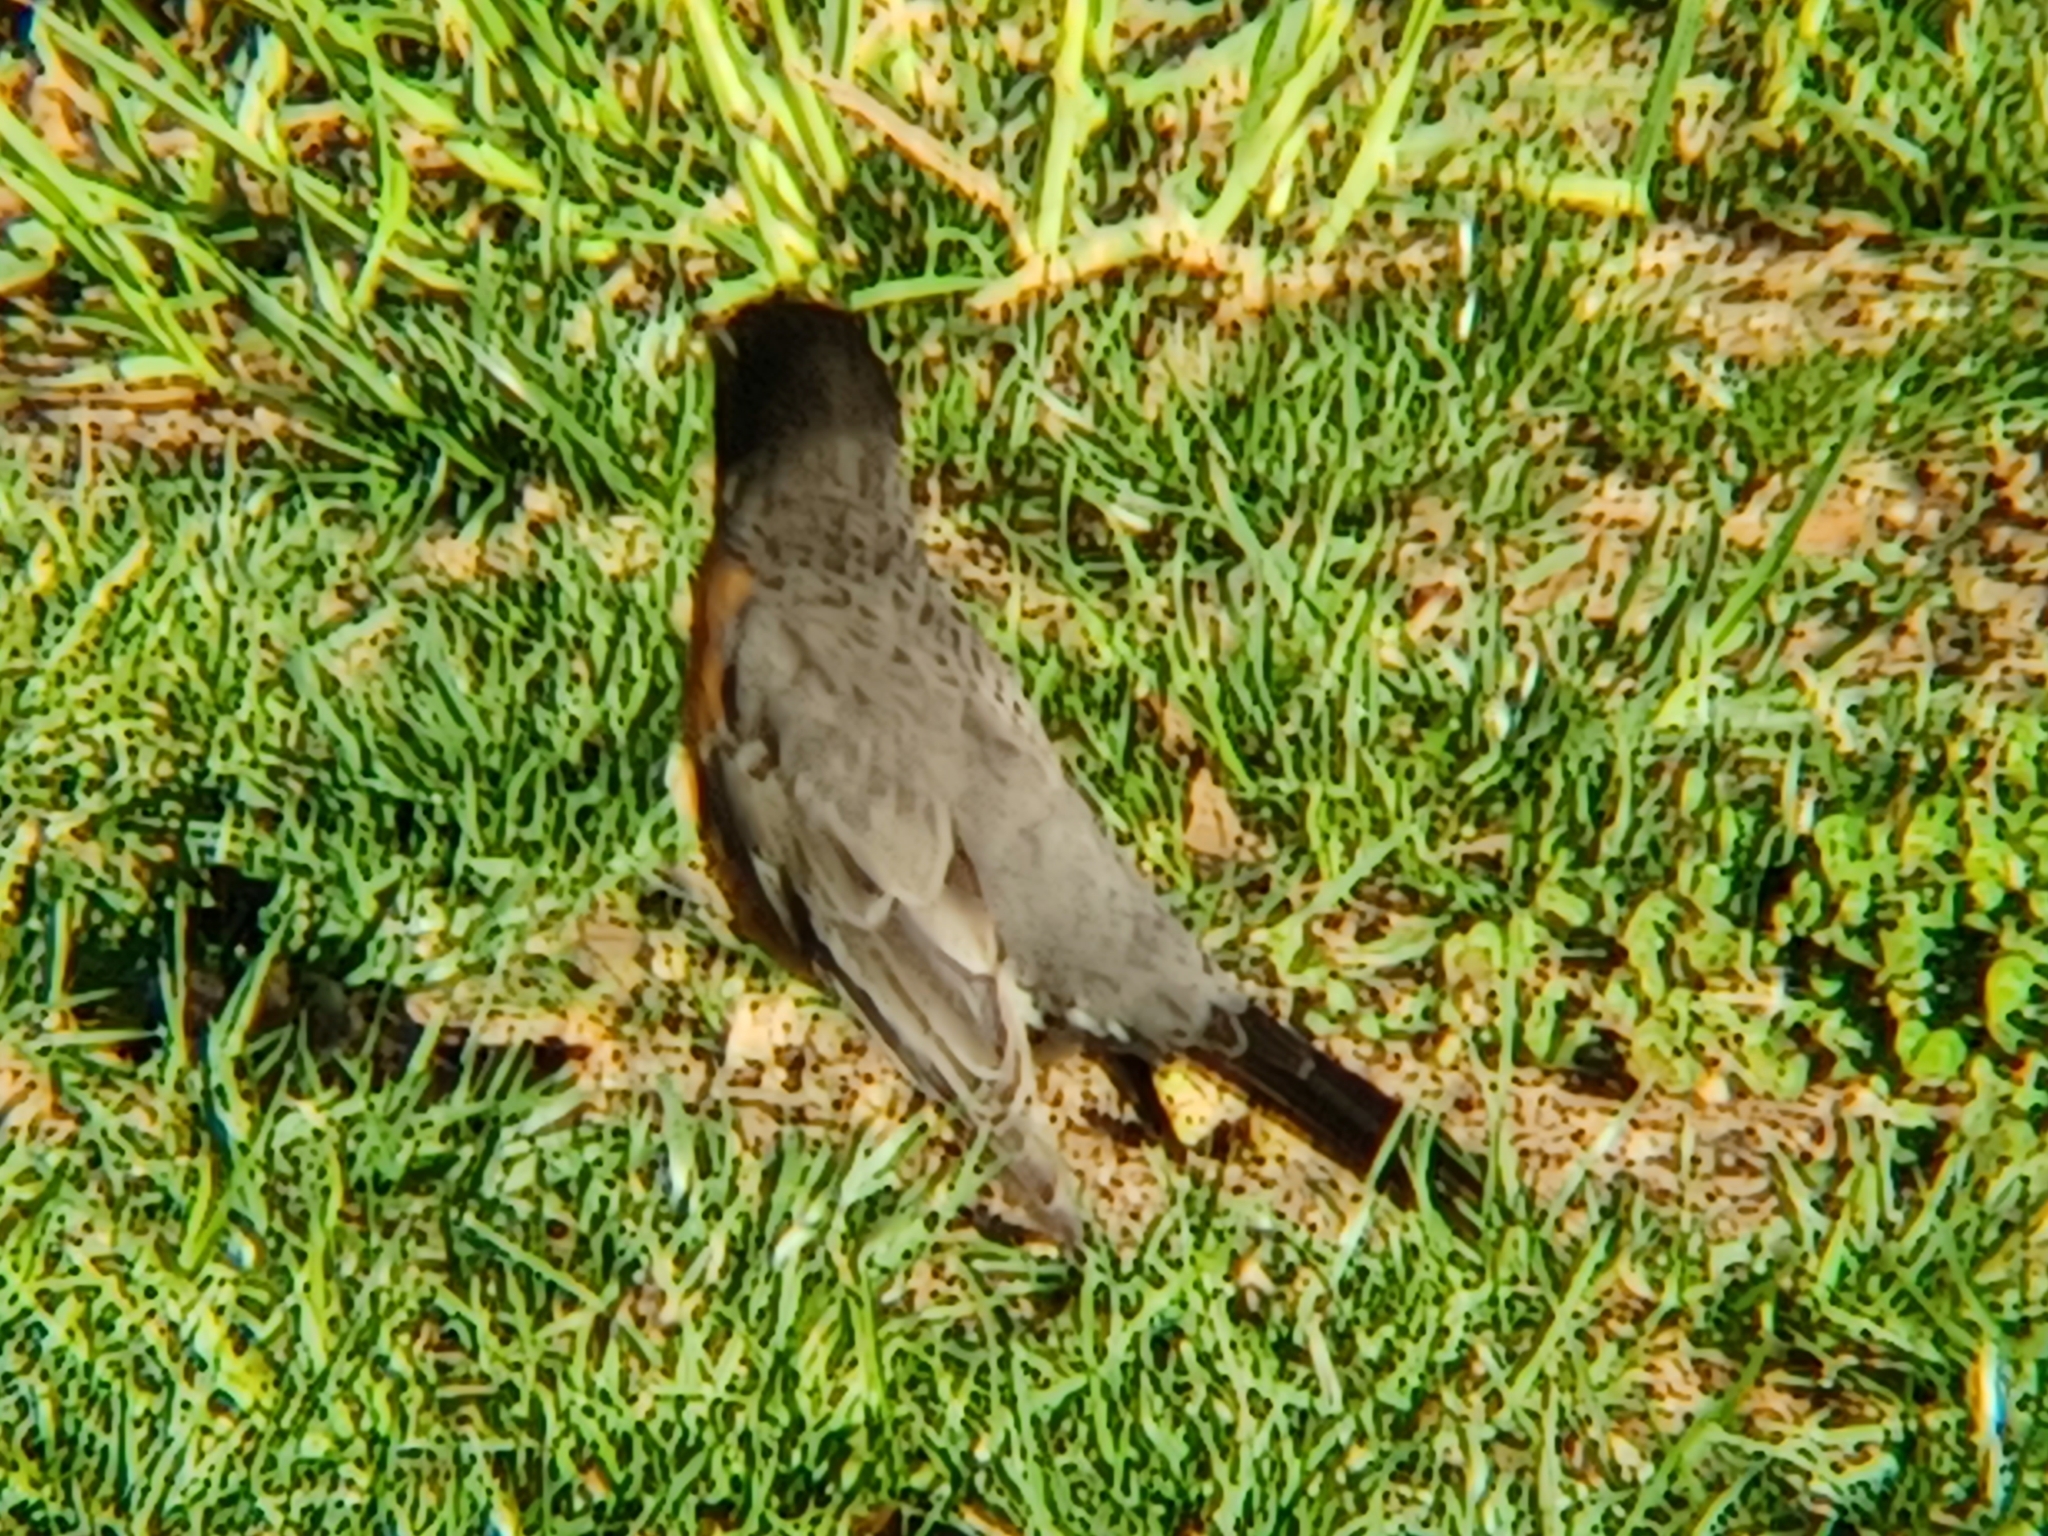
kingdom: Animalia
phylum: Chordata
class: Aves
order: Passeriformes
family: Turdidae
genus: Turdus
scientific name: Turdus migratorius
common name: American robin
